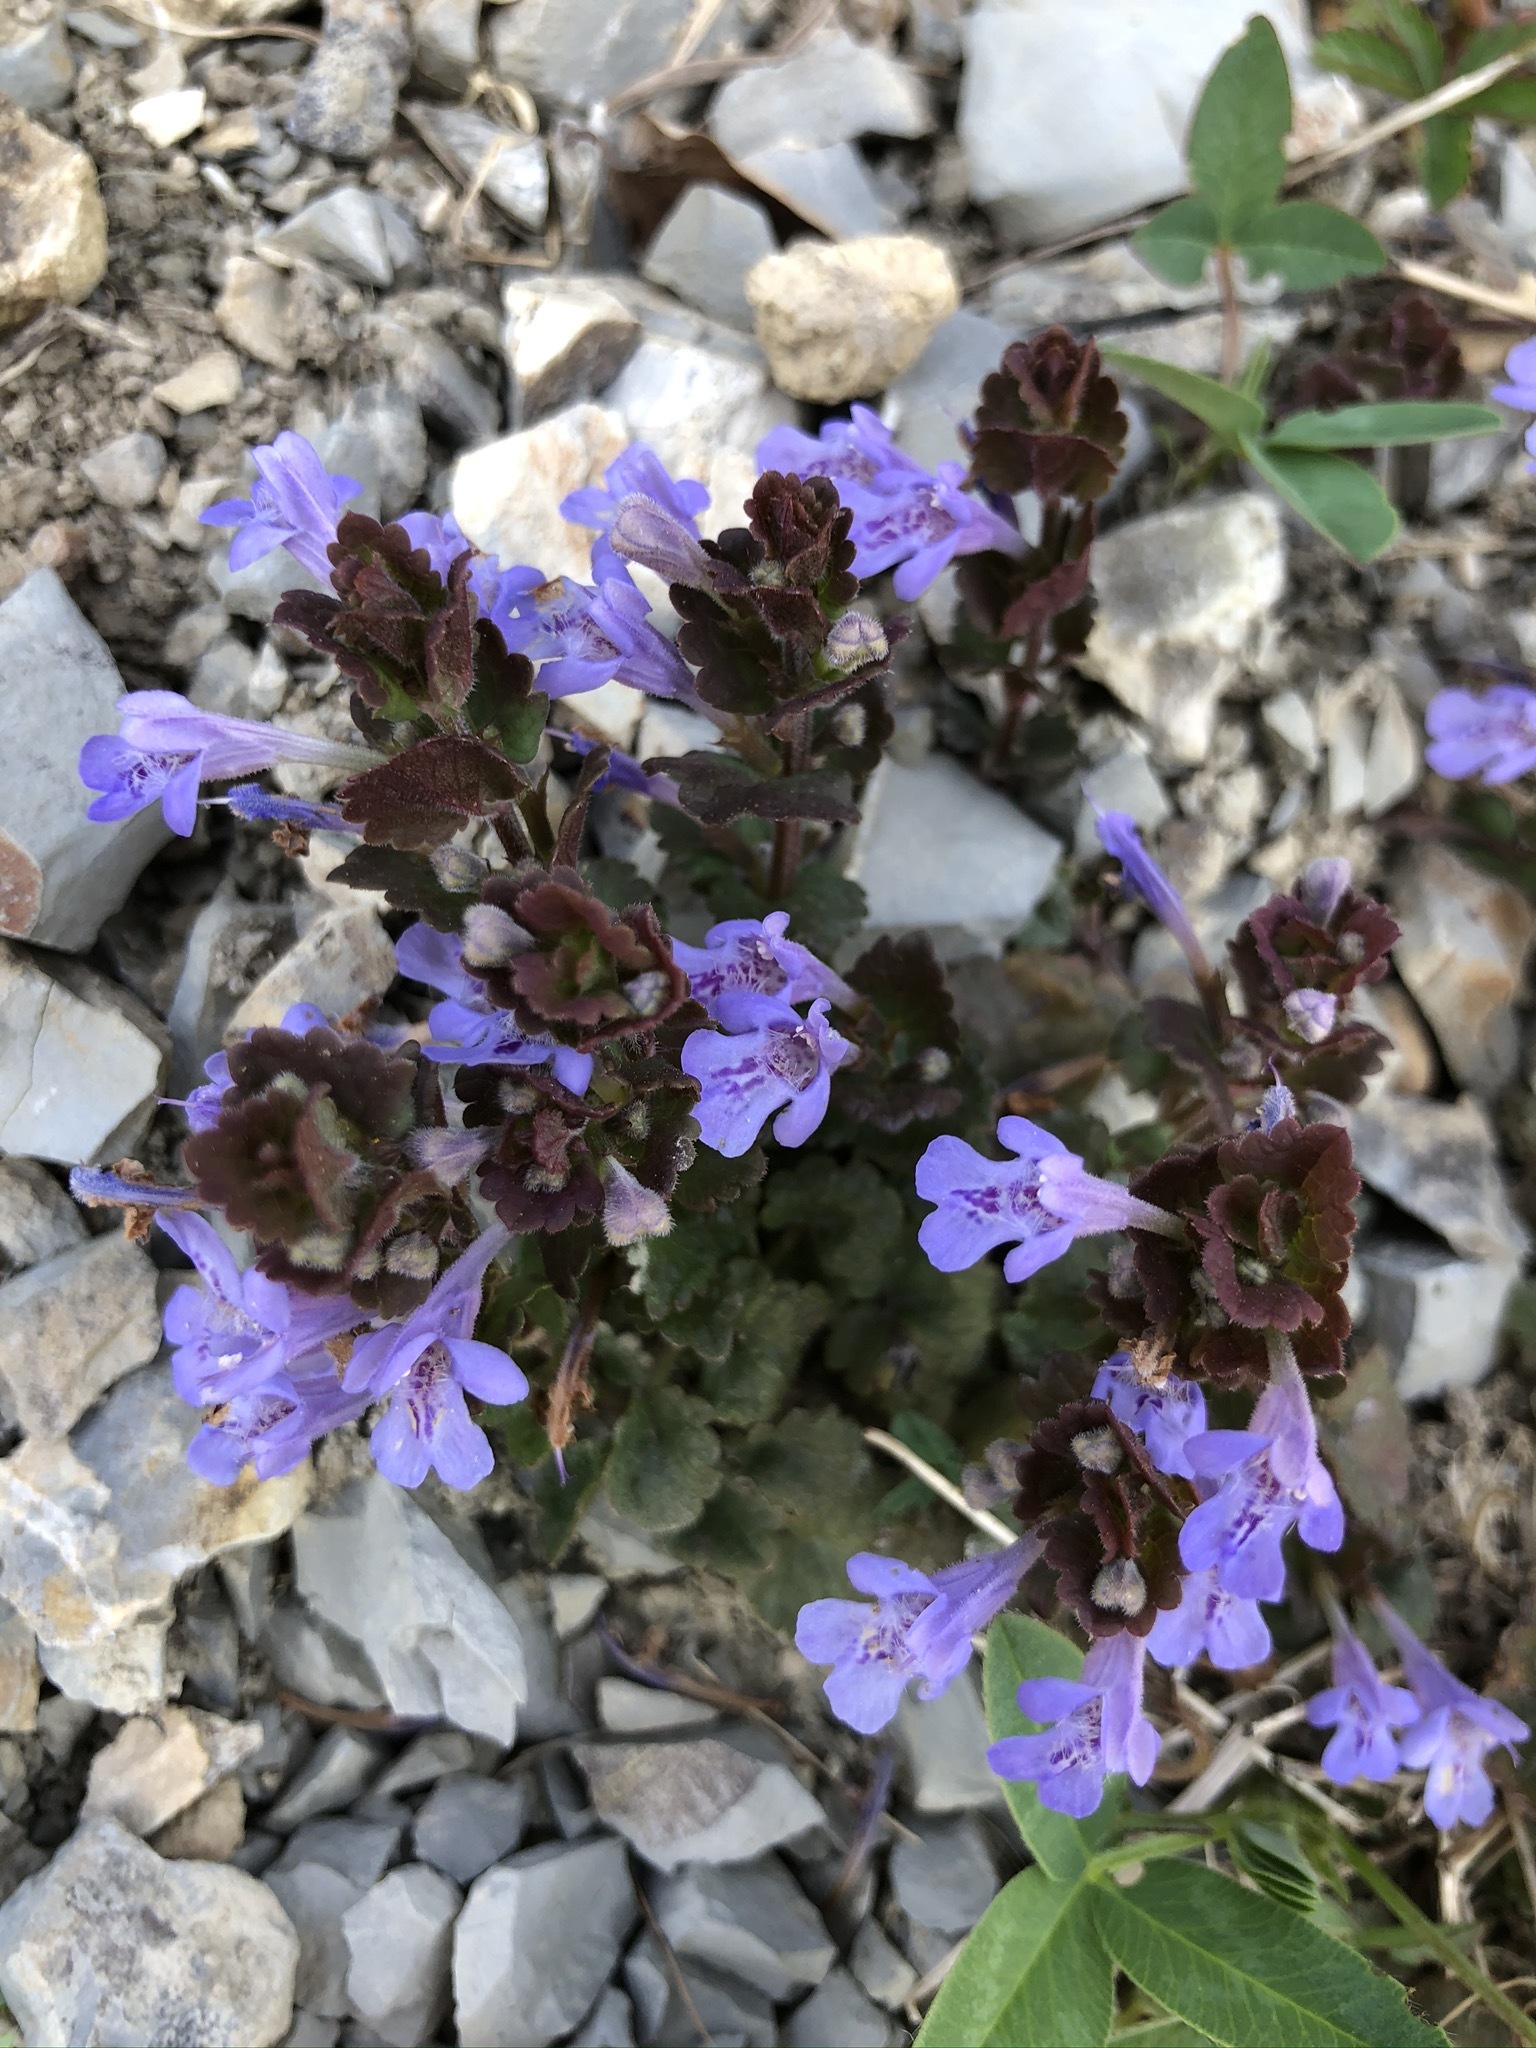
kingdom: Plantae
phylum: Tracheophyta
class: Magnoliopsida
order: Lamiales
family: Lamiaceae
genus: Glechoma
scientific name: Glechoma hederacea
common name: Ground ivy
